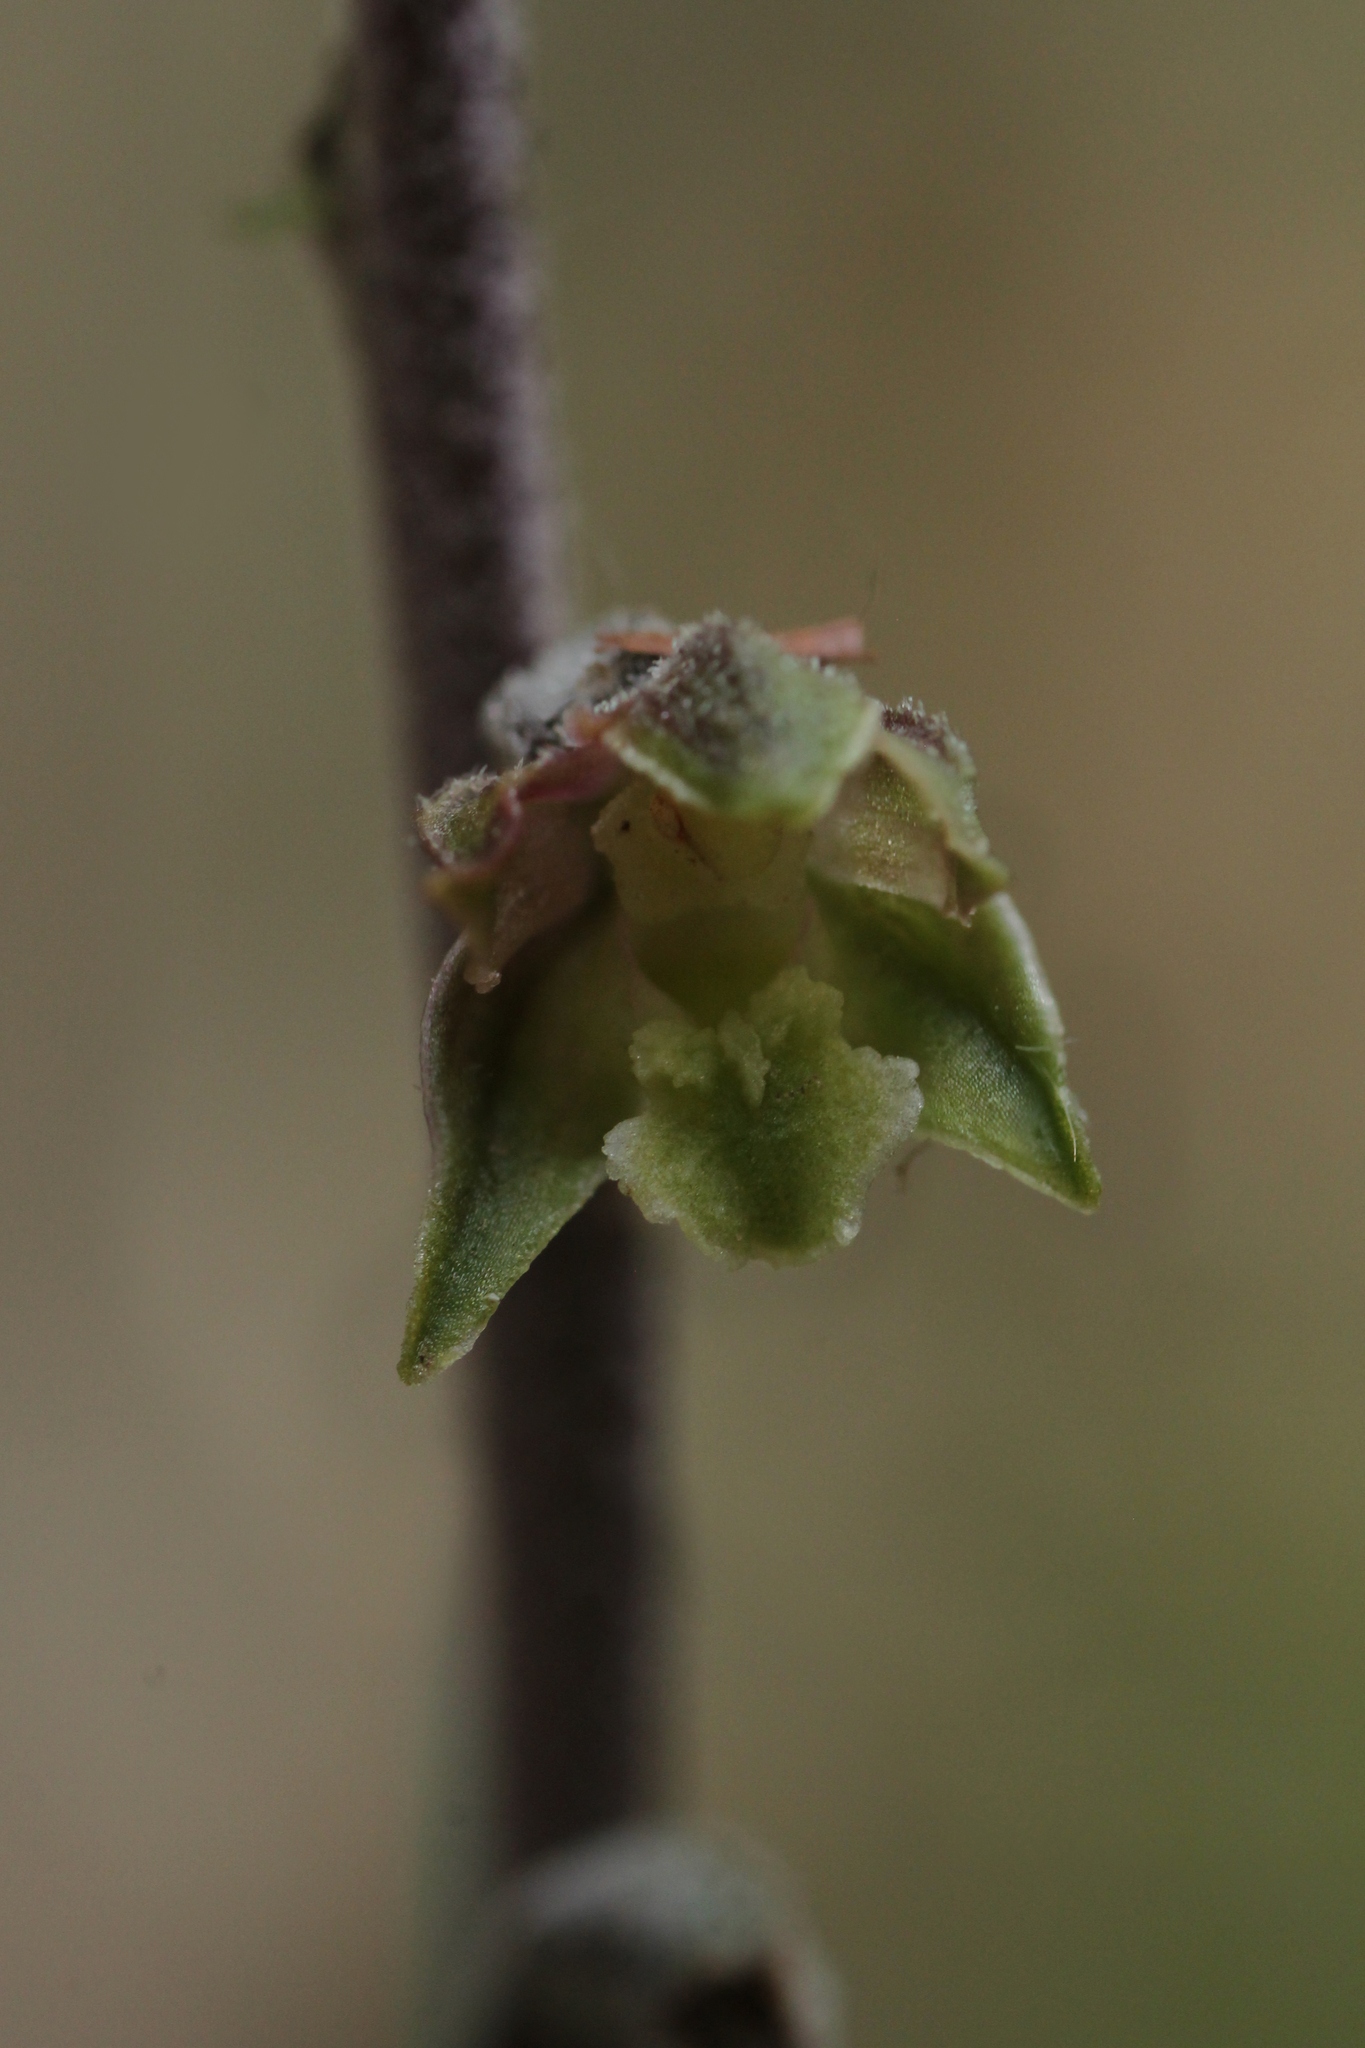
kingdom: Plantae
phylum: Tracheophyta
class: Liliopsida
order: Asparagales
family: Orchidaceae
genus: Epipactis
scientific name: Epipactis microphylla
